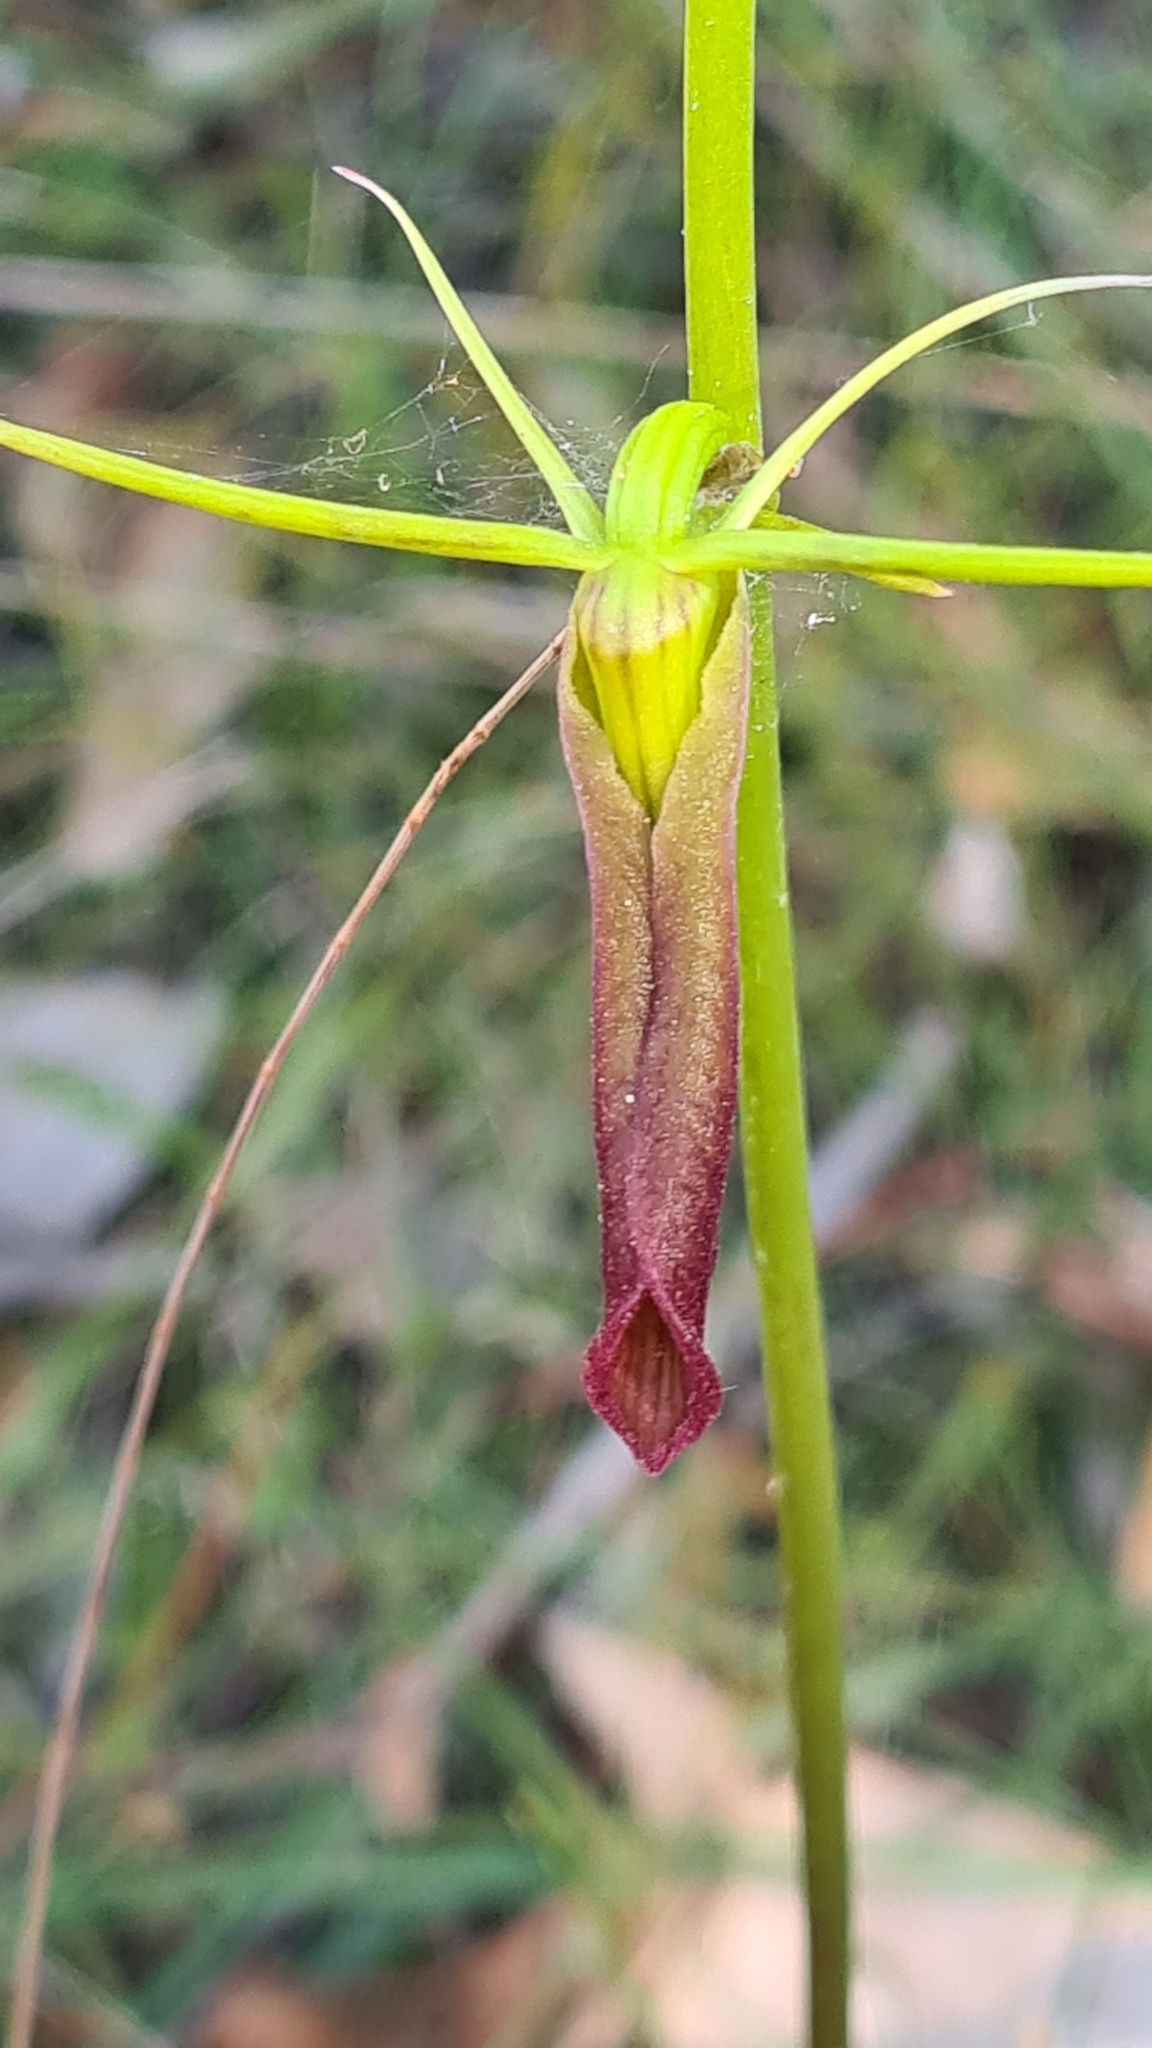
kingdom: Plantae
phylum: Tracheophyta
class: Liliopsida
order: Asparagales
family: Orchidaceae
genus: Cryptostylis
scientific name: Cryptostylis subulata
